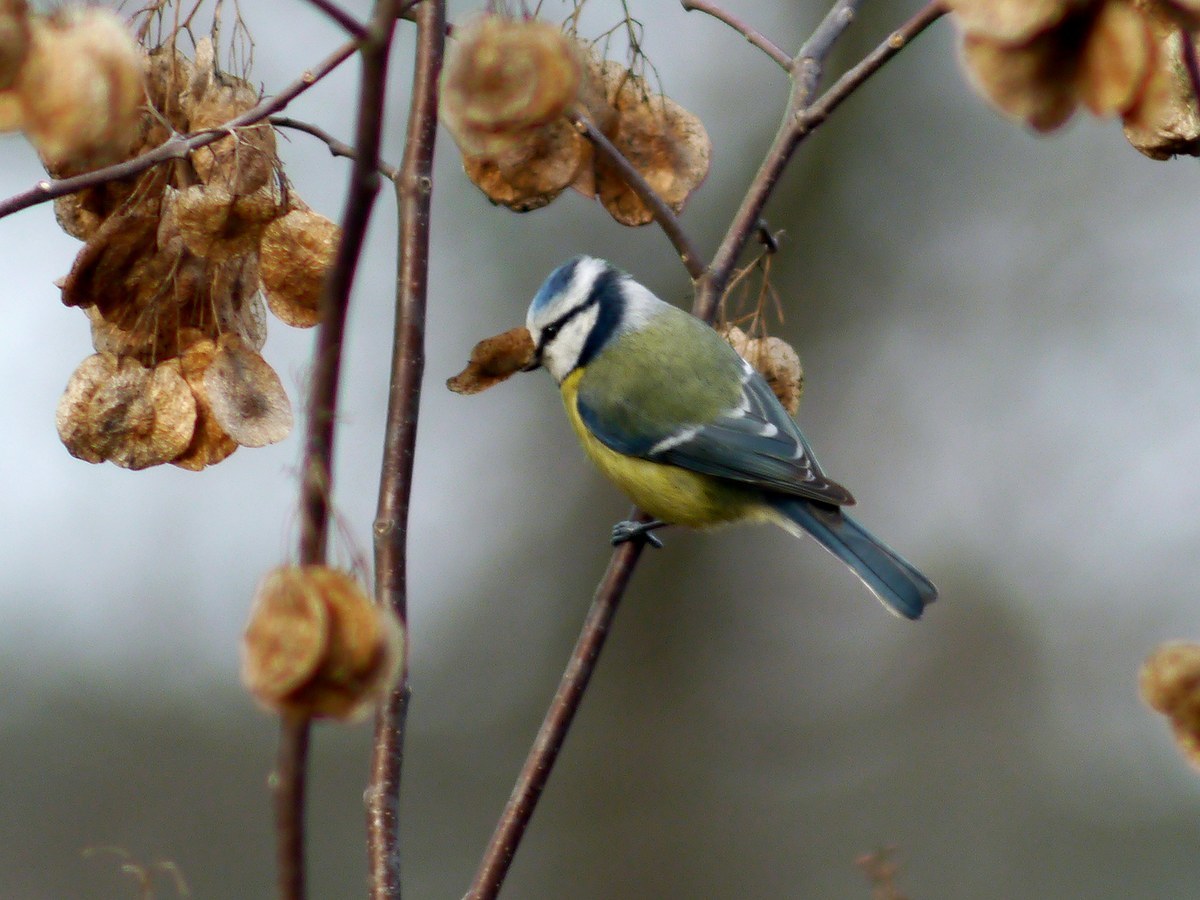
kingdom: Animalia
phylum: Chordata
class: Aves
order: Passeriformes
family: Paridae
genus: Cyanistes
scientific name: Cyanistes caeruleus
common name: Eurasian blue tit
